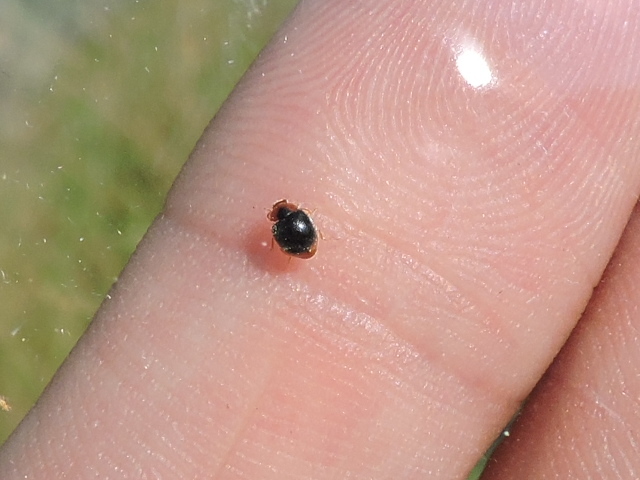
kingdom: Animalia
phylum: Arthropoda
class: Insecta
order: Coleoptera
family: Coccinellidae
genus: Scymnus
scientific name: Scymnus louisianae
